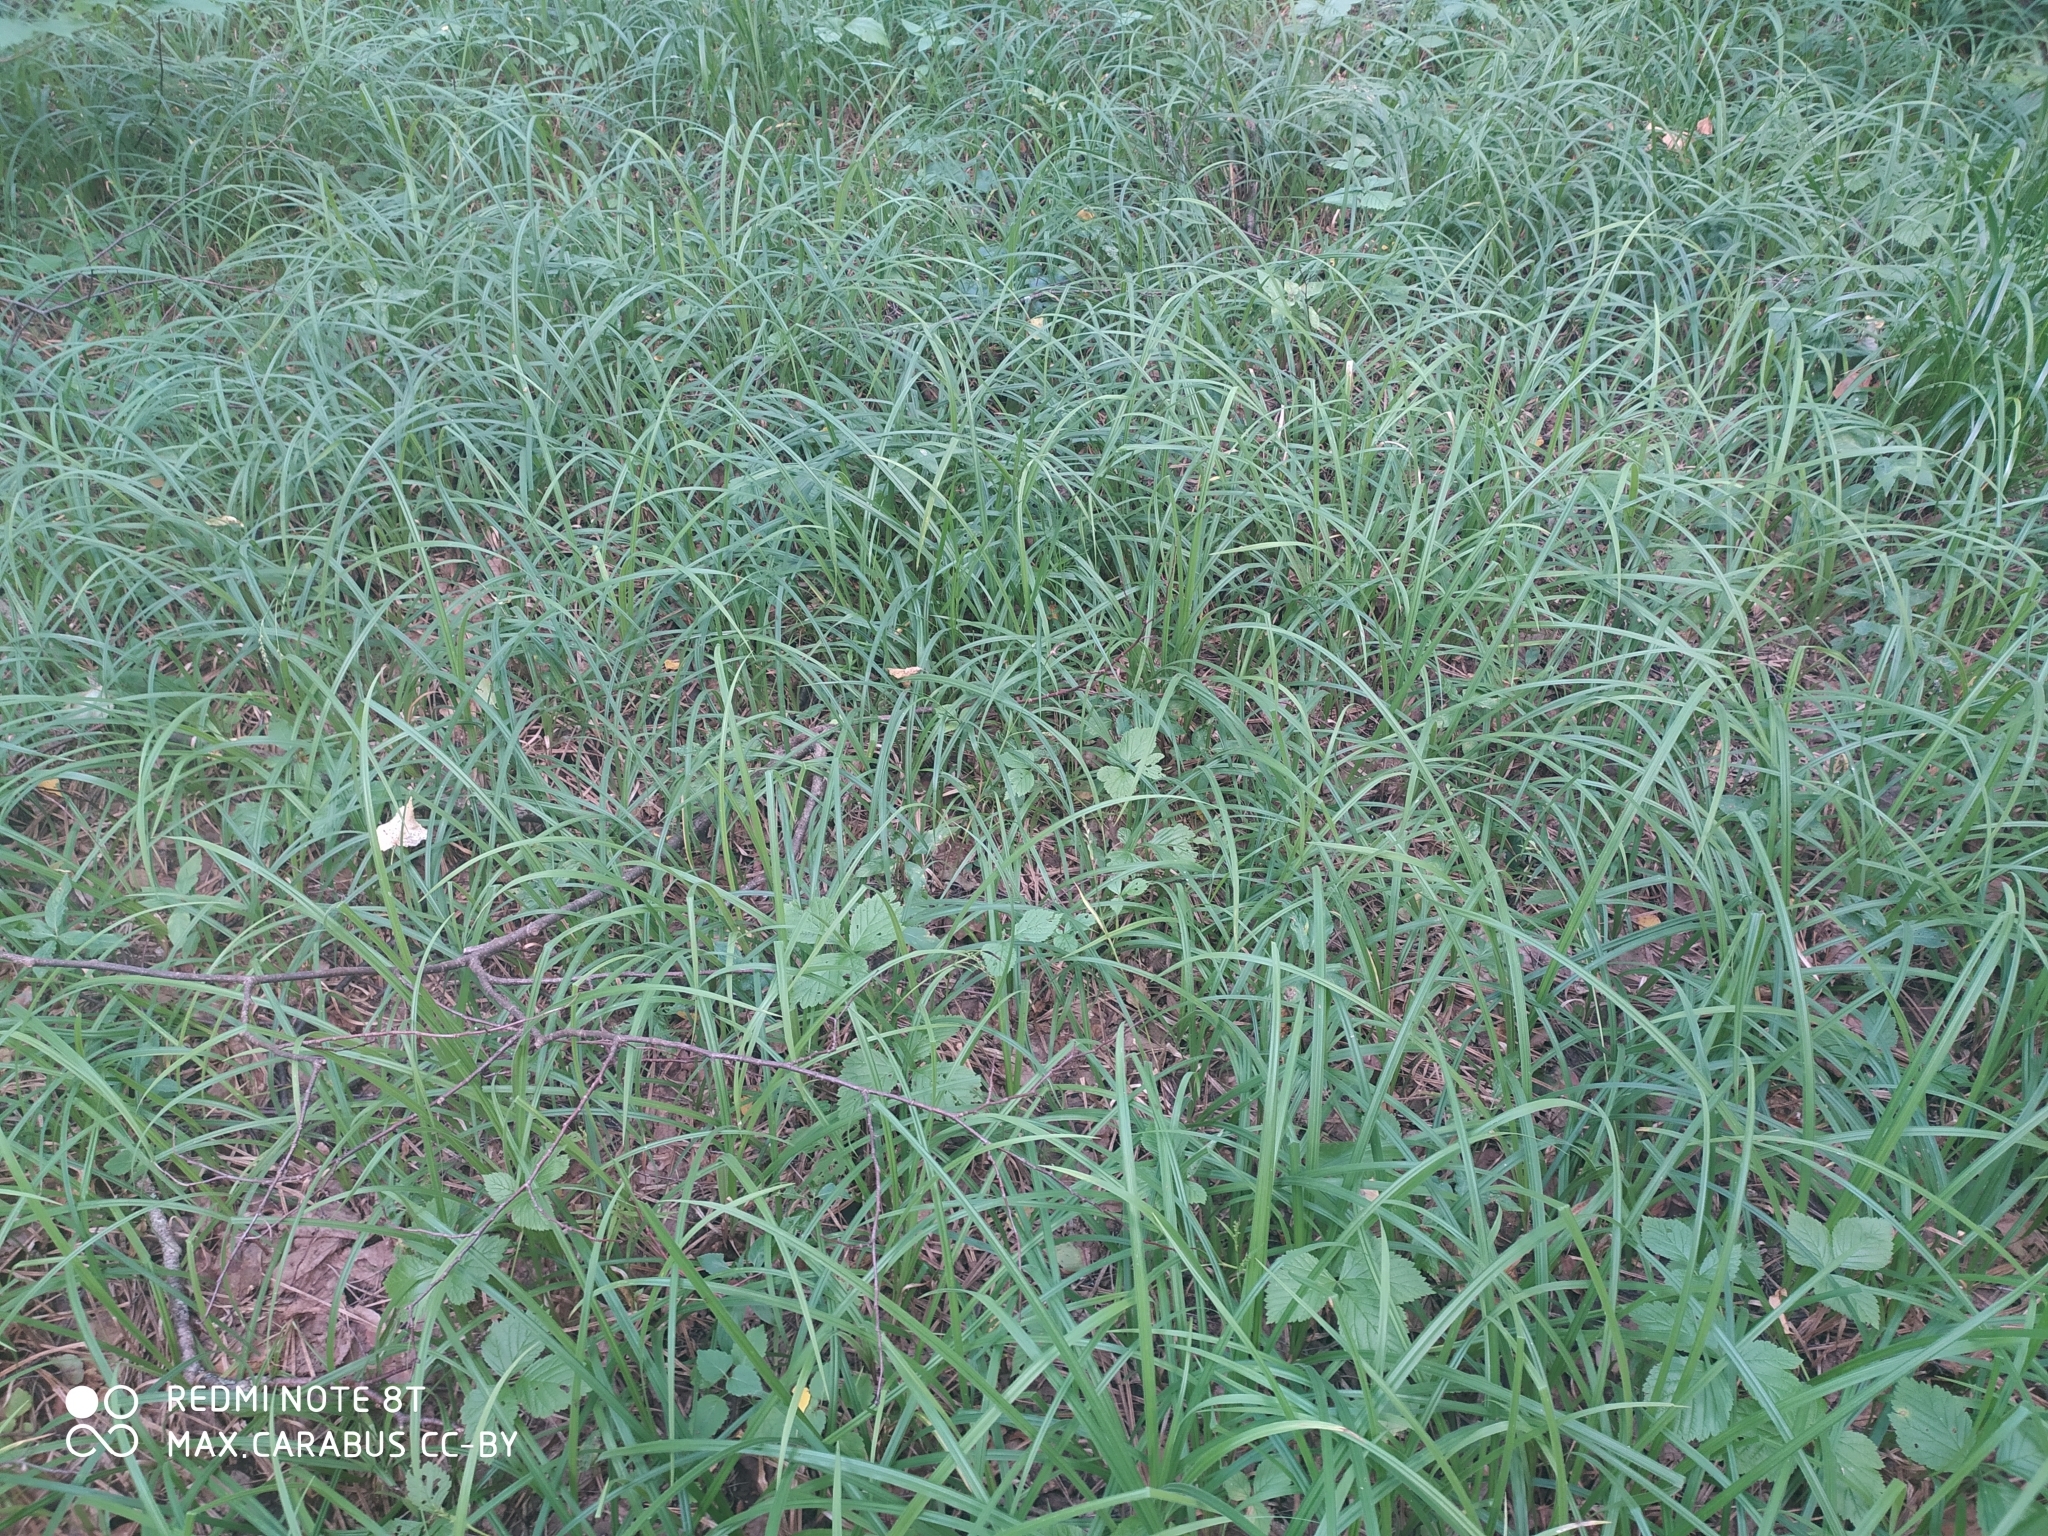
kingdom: Plantae
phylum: Tracheophyta
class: Liliopsida
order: Poales
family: Cyperaceae
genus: Carex
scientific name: Carex pilosa
